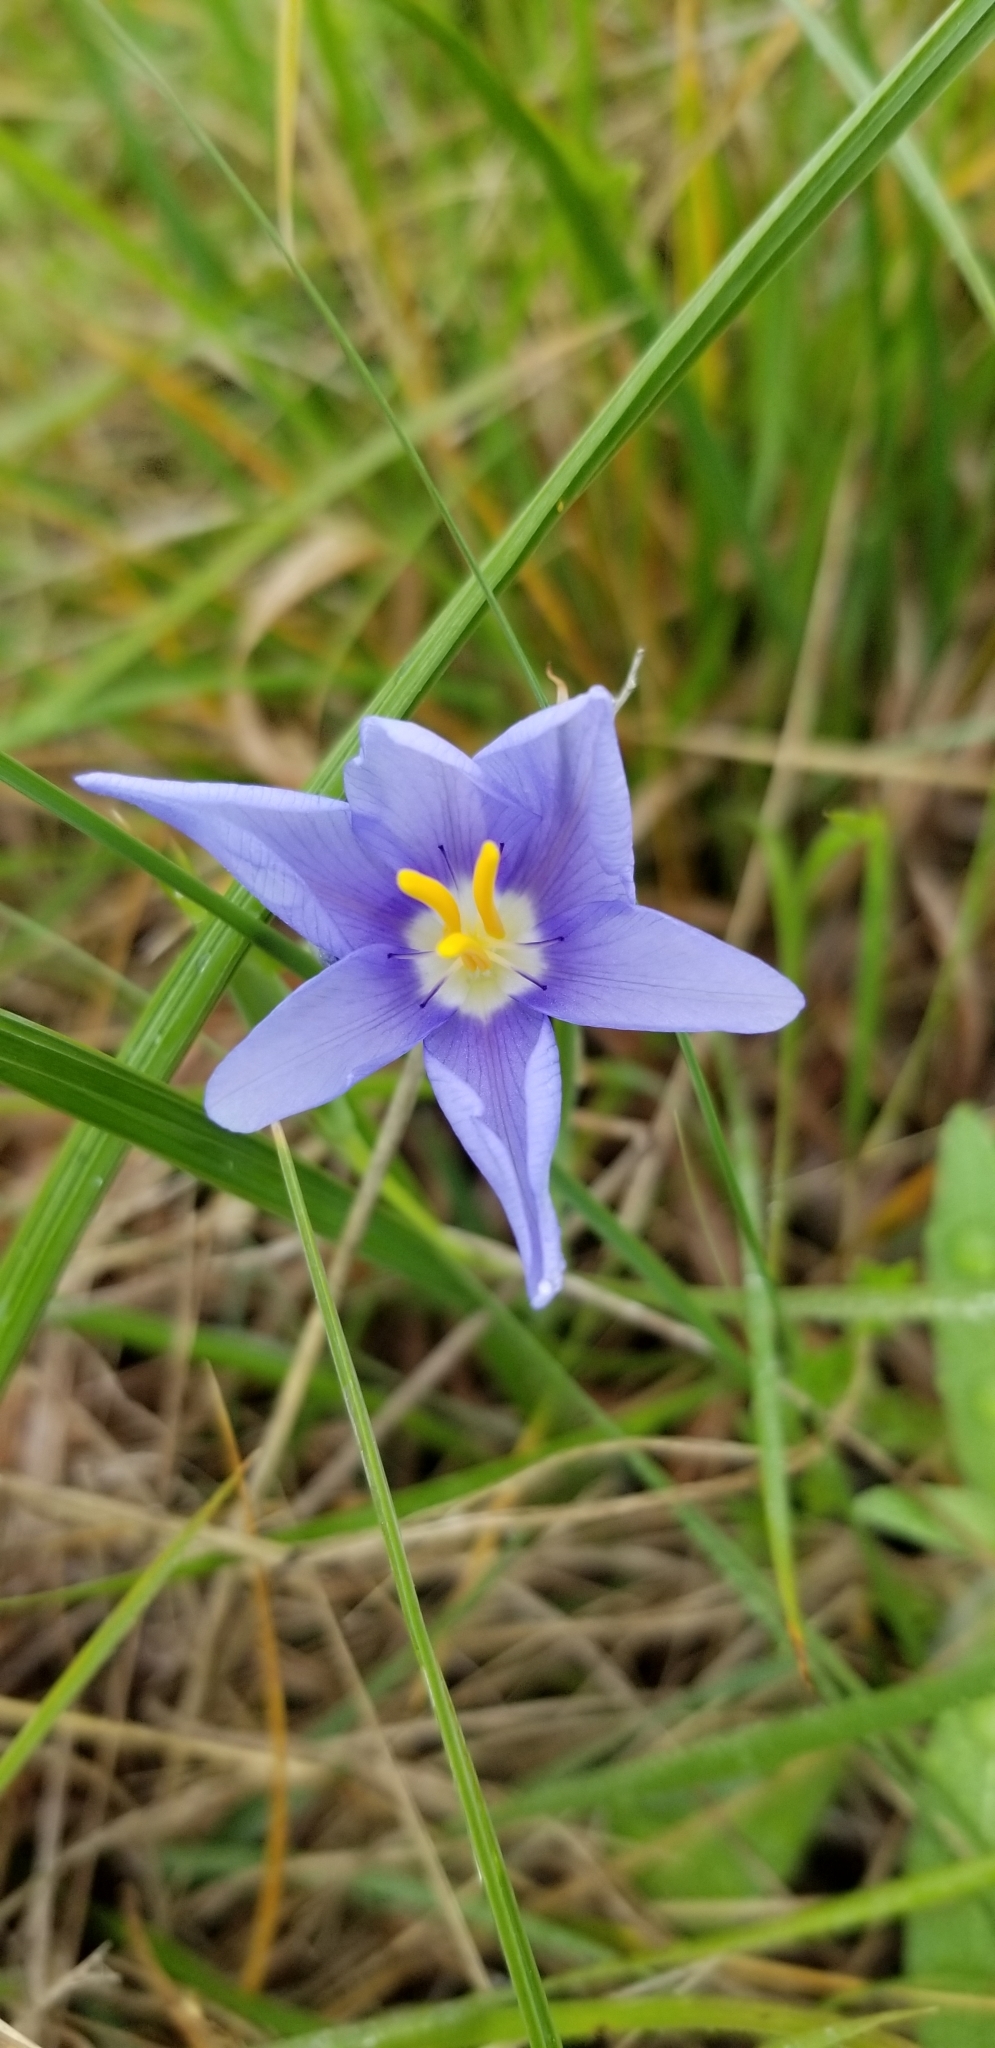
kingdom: Plantae
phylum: Tracheophyta
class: Liliopsida
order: Asparagales
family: Iridaceae
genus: Nemastylis
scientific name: Nemastylis geminiflora
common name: Prairie celestial
